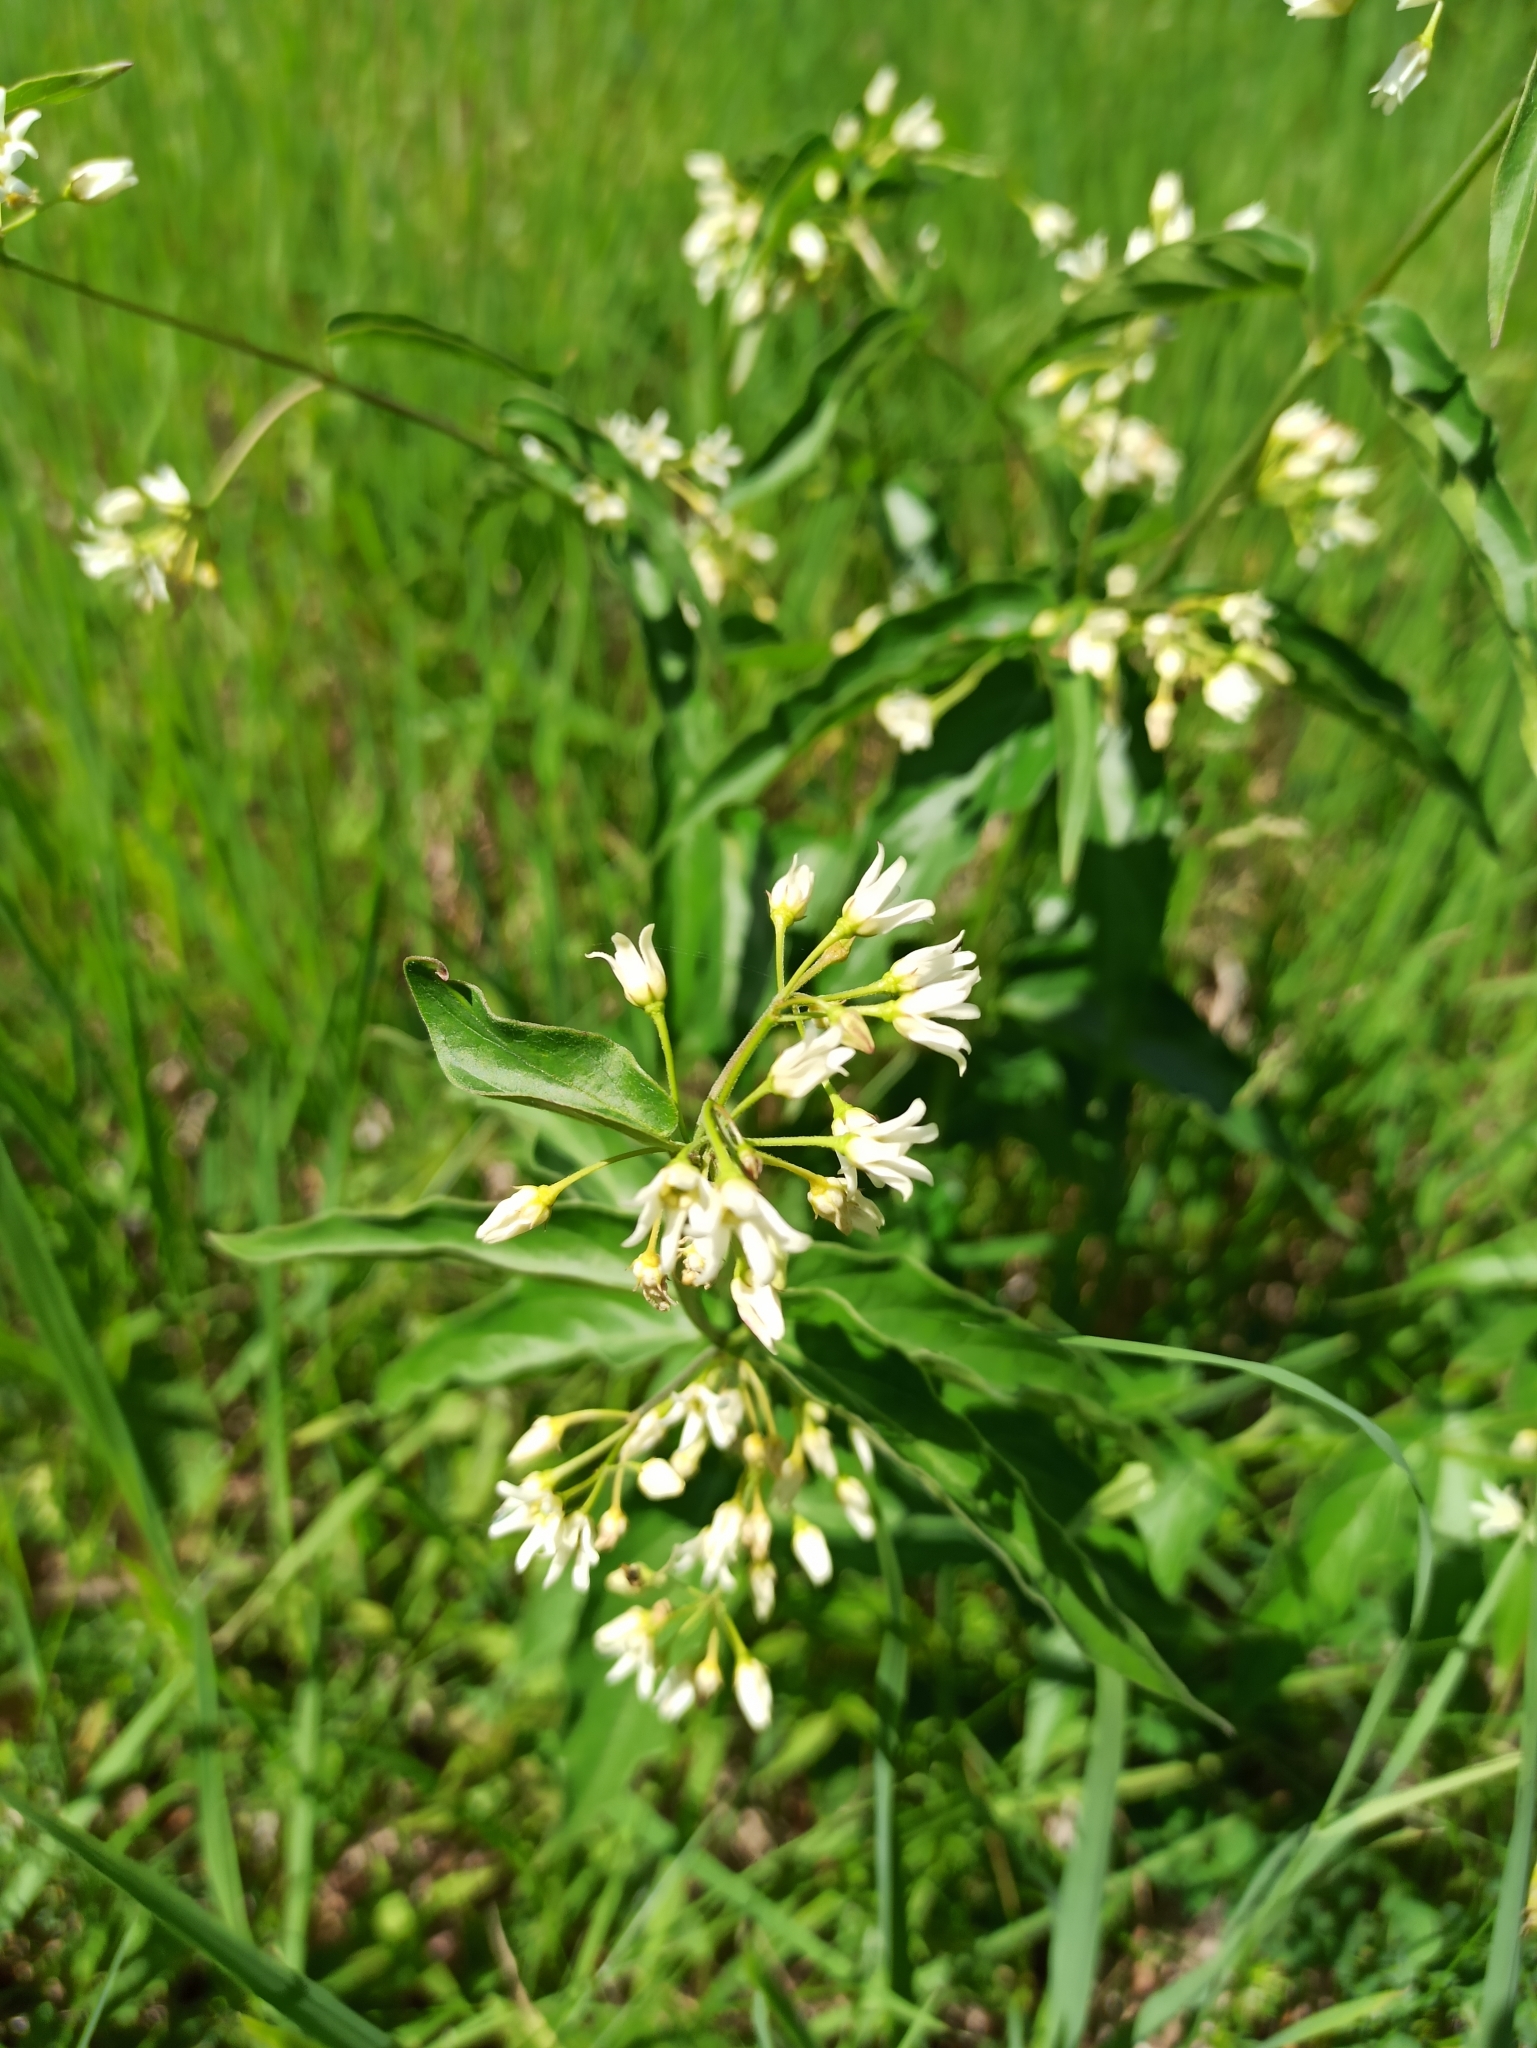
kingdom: Plantae
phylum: Tracheophyta
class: Magnoliopsida
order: Gentianales
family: Apocynaceae
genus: Vincetoxicum
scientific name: Vincetoxicum hirundinaria
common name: White swallowwort
